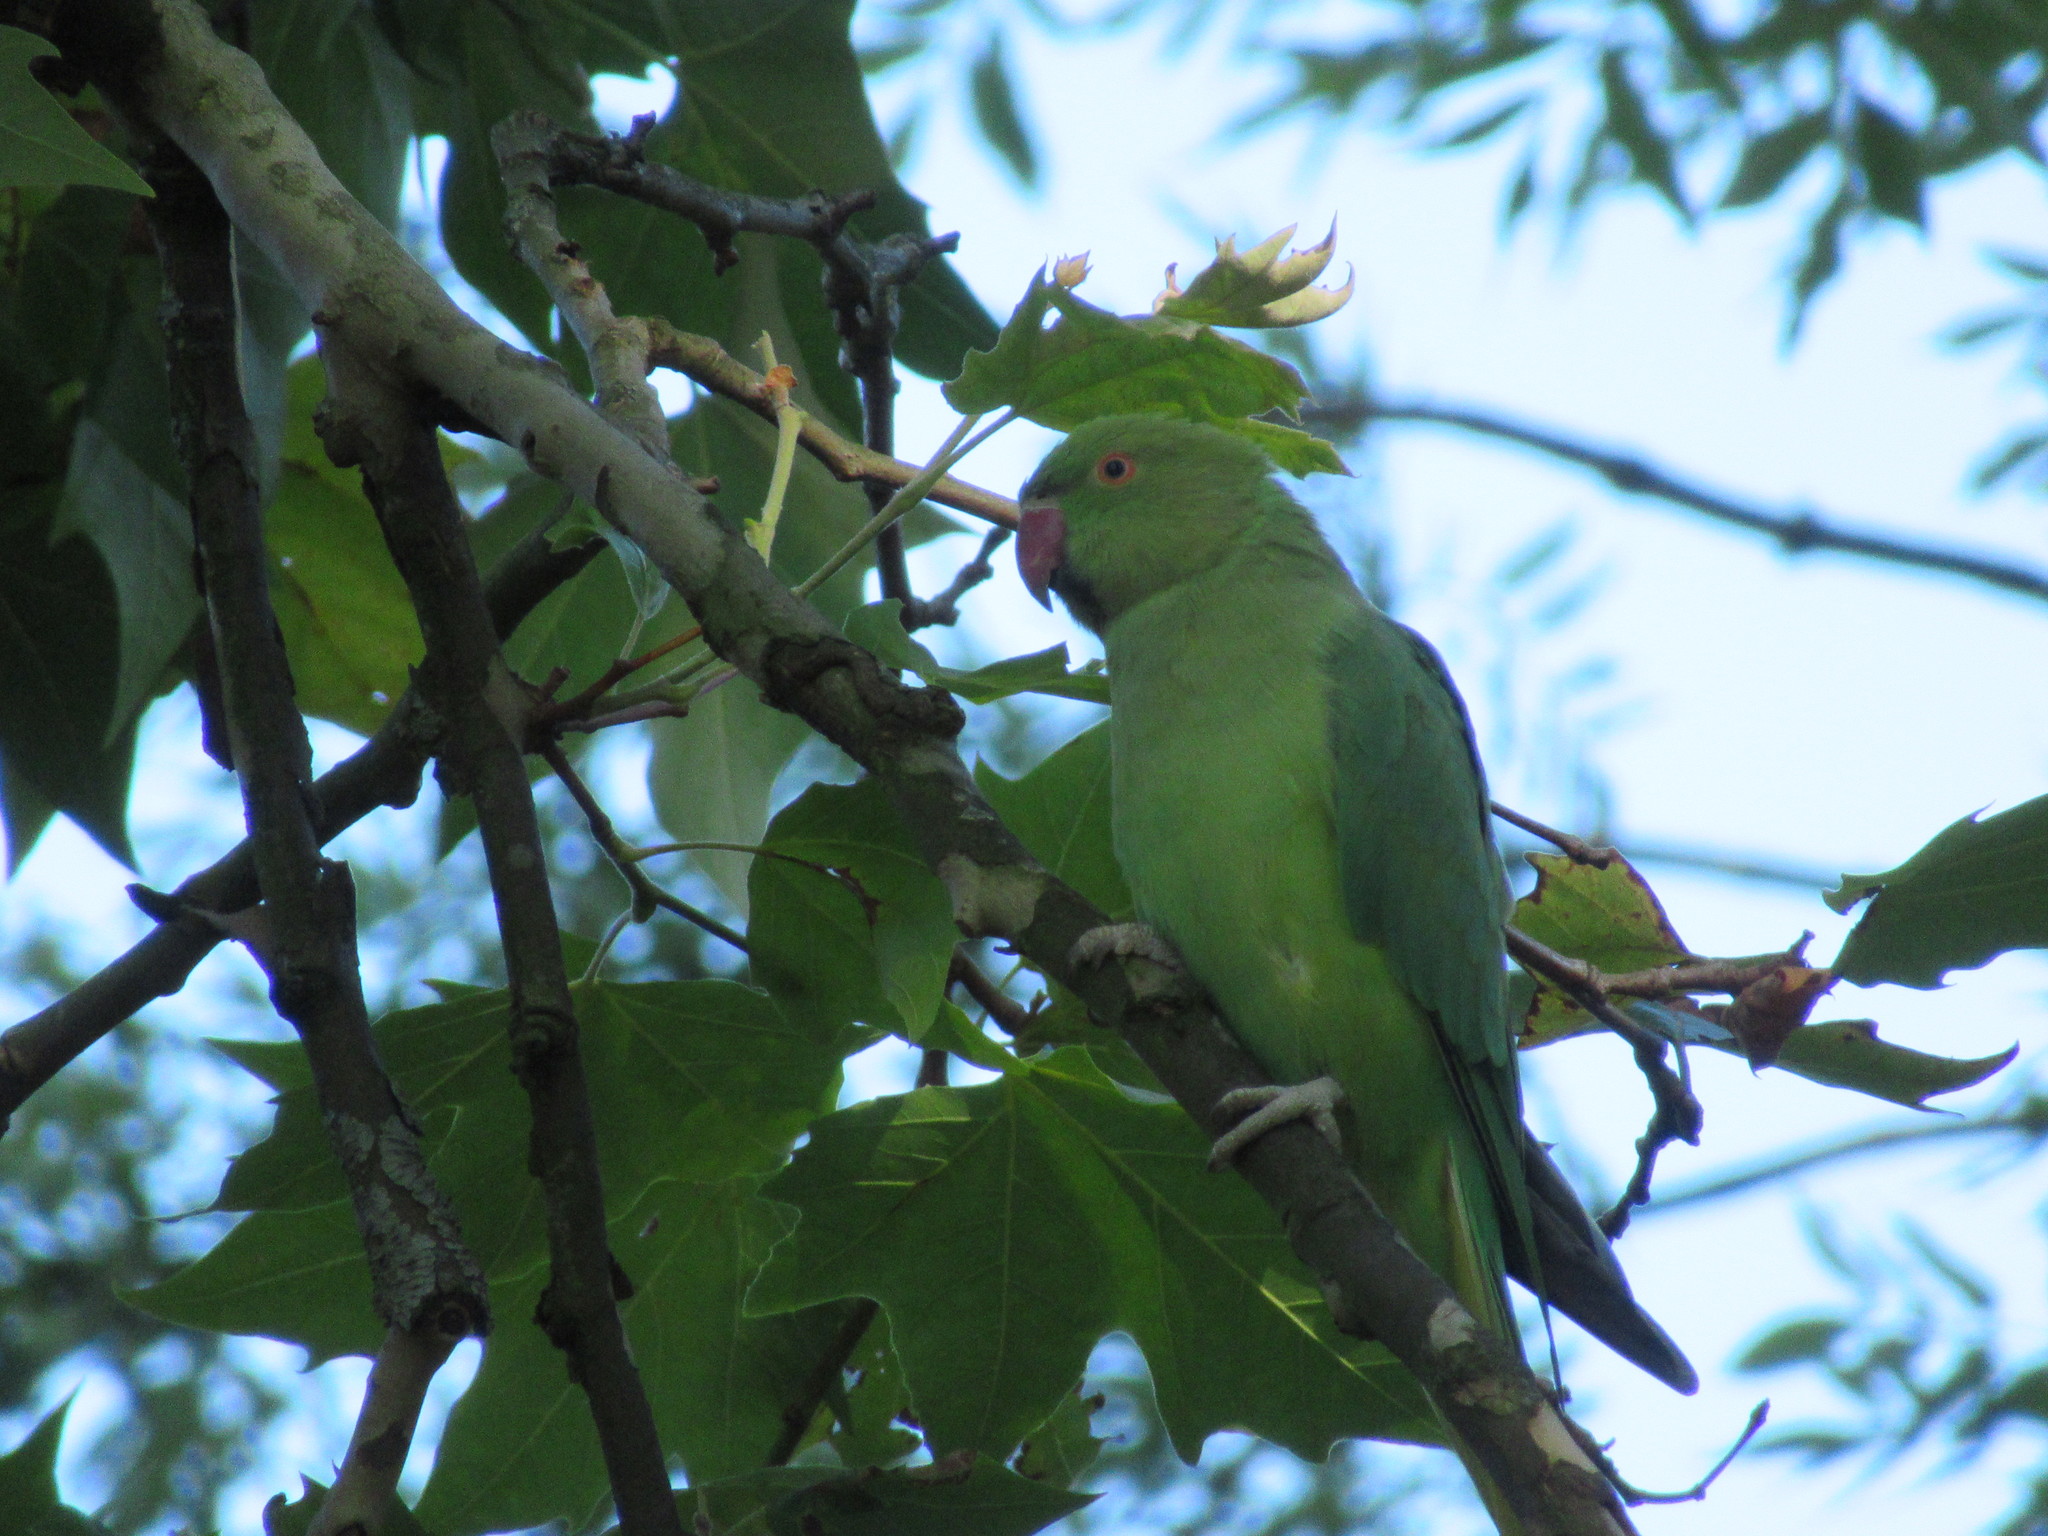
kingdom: Animalia
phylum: Chordata
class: Aves
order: Psittaciformes
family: Psittacidae
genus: Psittacula
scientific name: Psittacula krameri
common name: Rose-ringed parakeet
